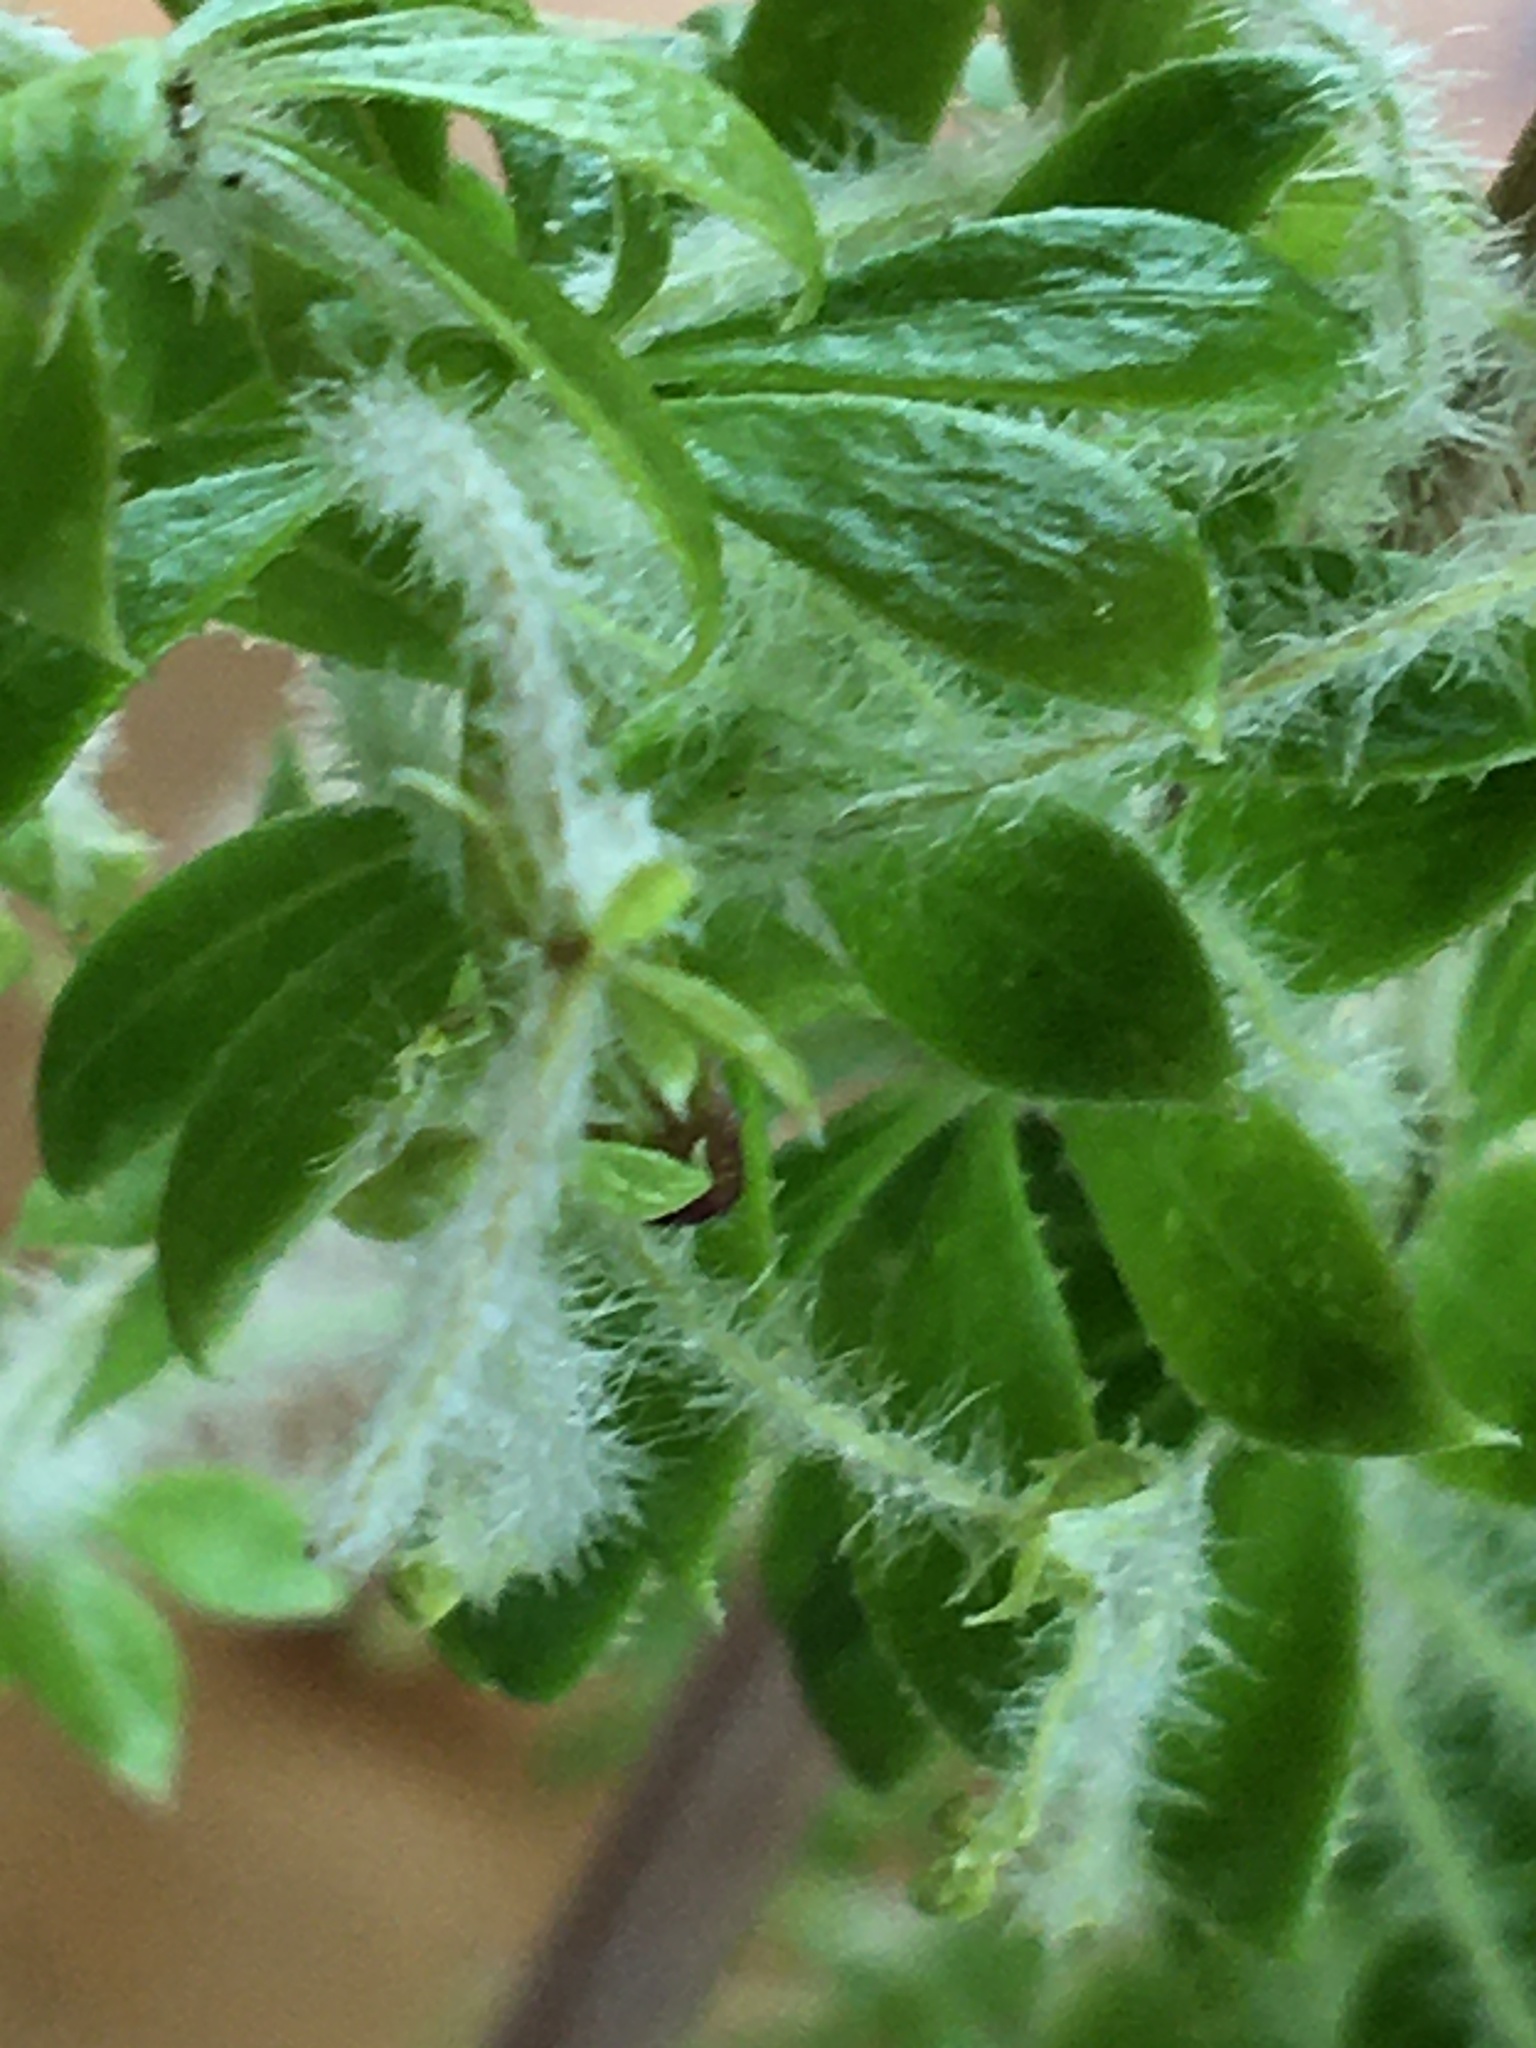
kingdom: Plantae
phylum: Tracheophyta
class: Magnoliopsida
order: Gentianales
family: Rubiaceae
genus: Galium
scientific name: Galium tomentosum
